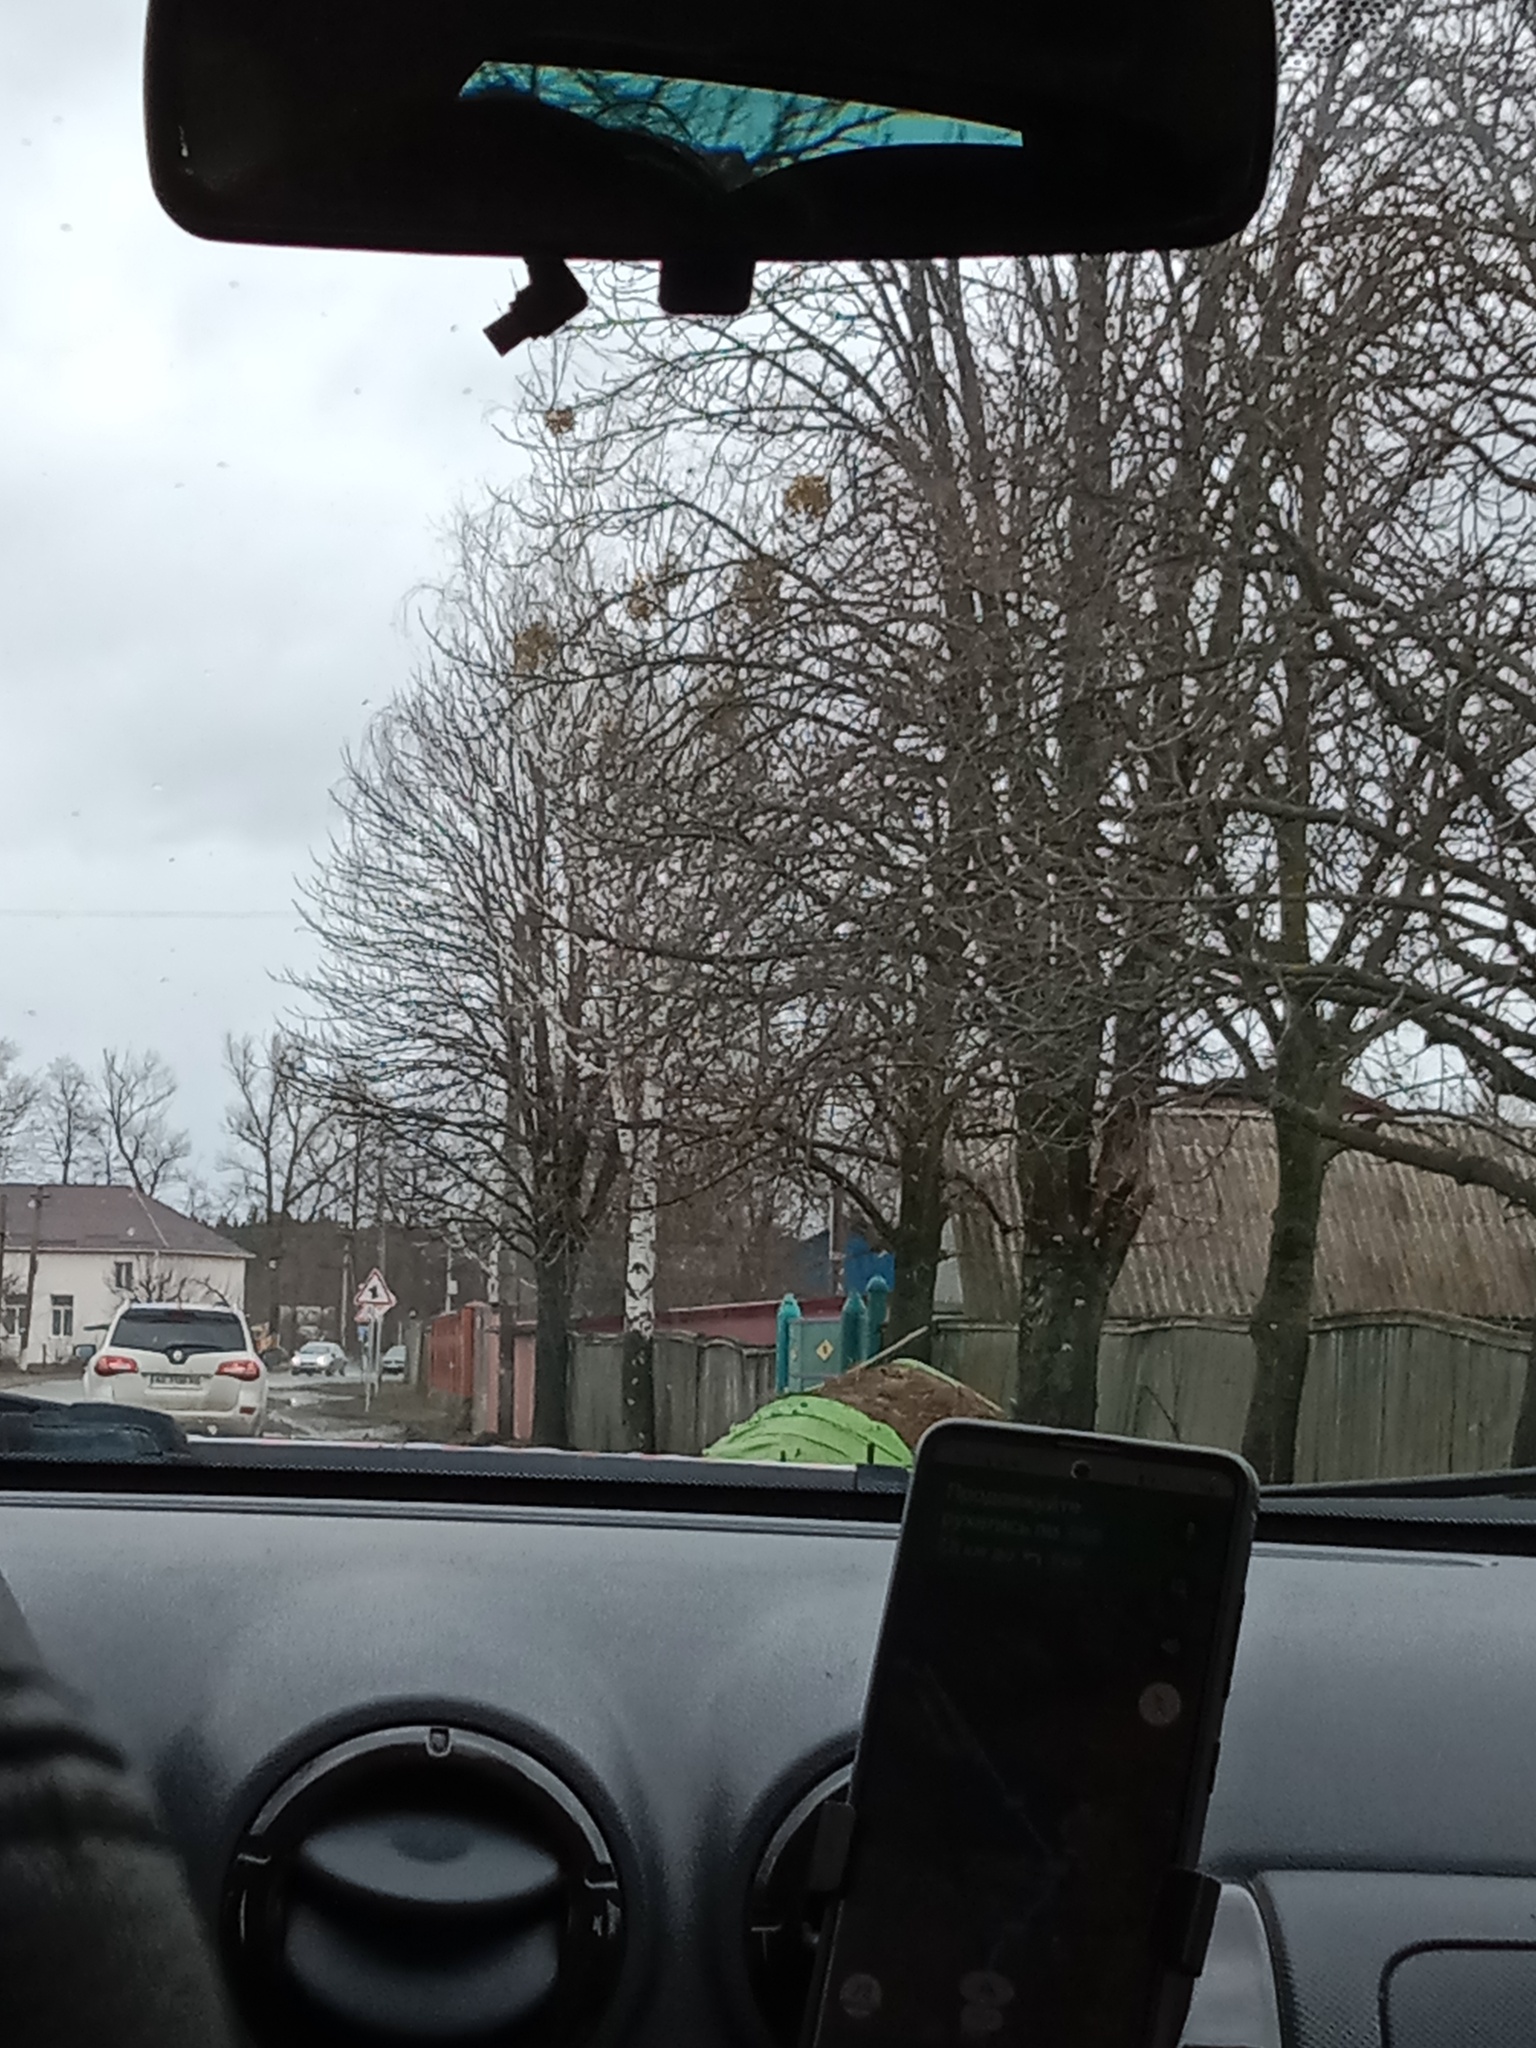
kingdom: Plantae
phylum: Tracheophyta
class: Magnoliopsida
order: Santalales
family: Viscaceae
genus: Viscum
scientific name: Viscum album
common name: Mistletoe
